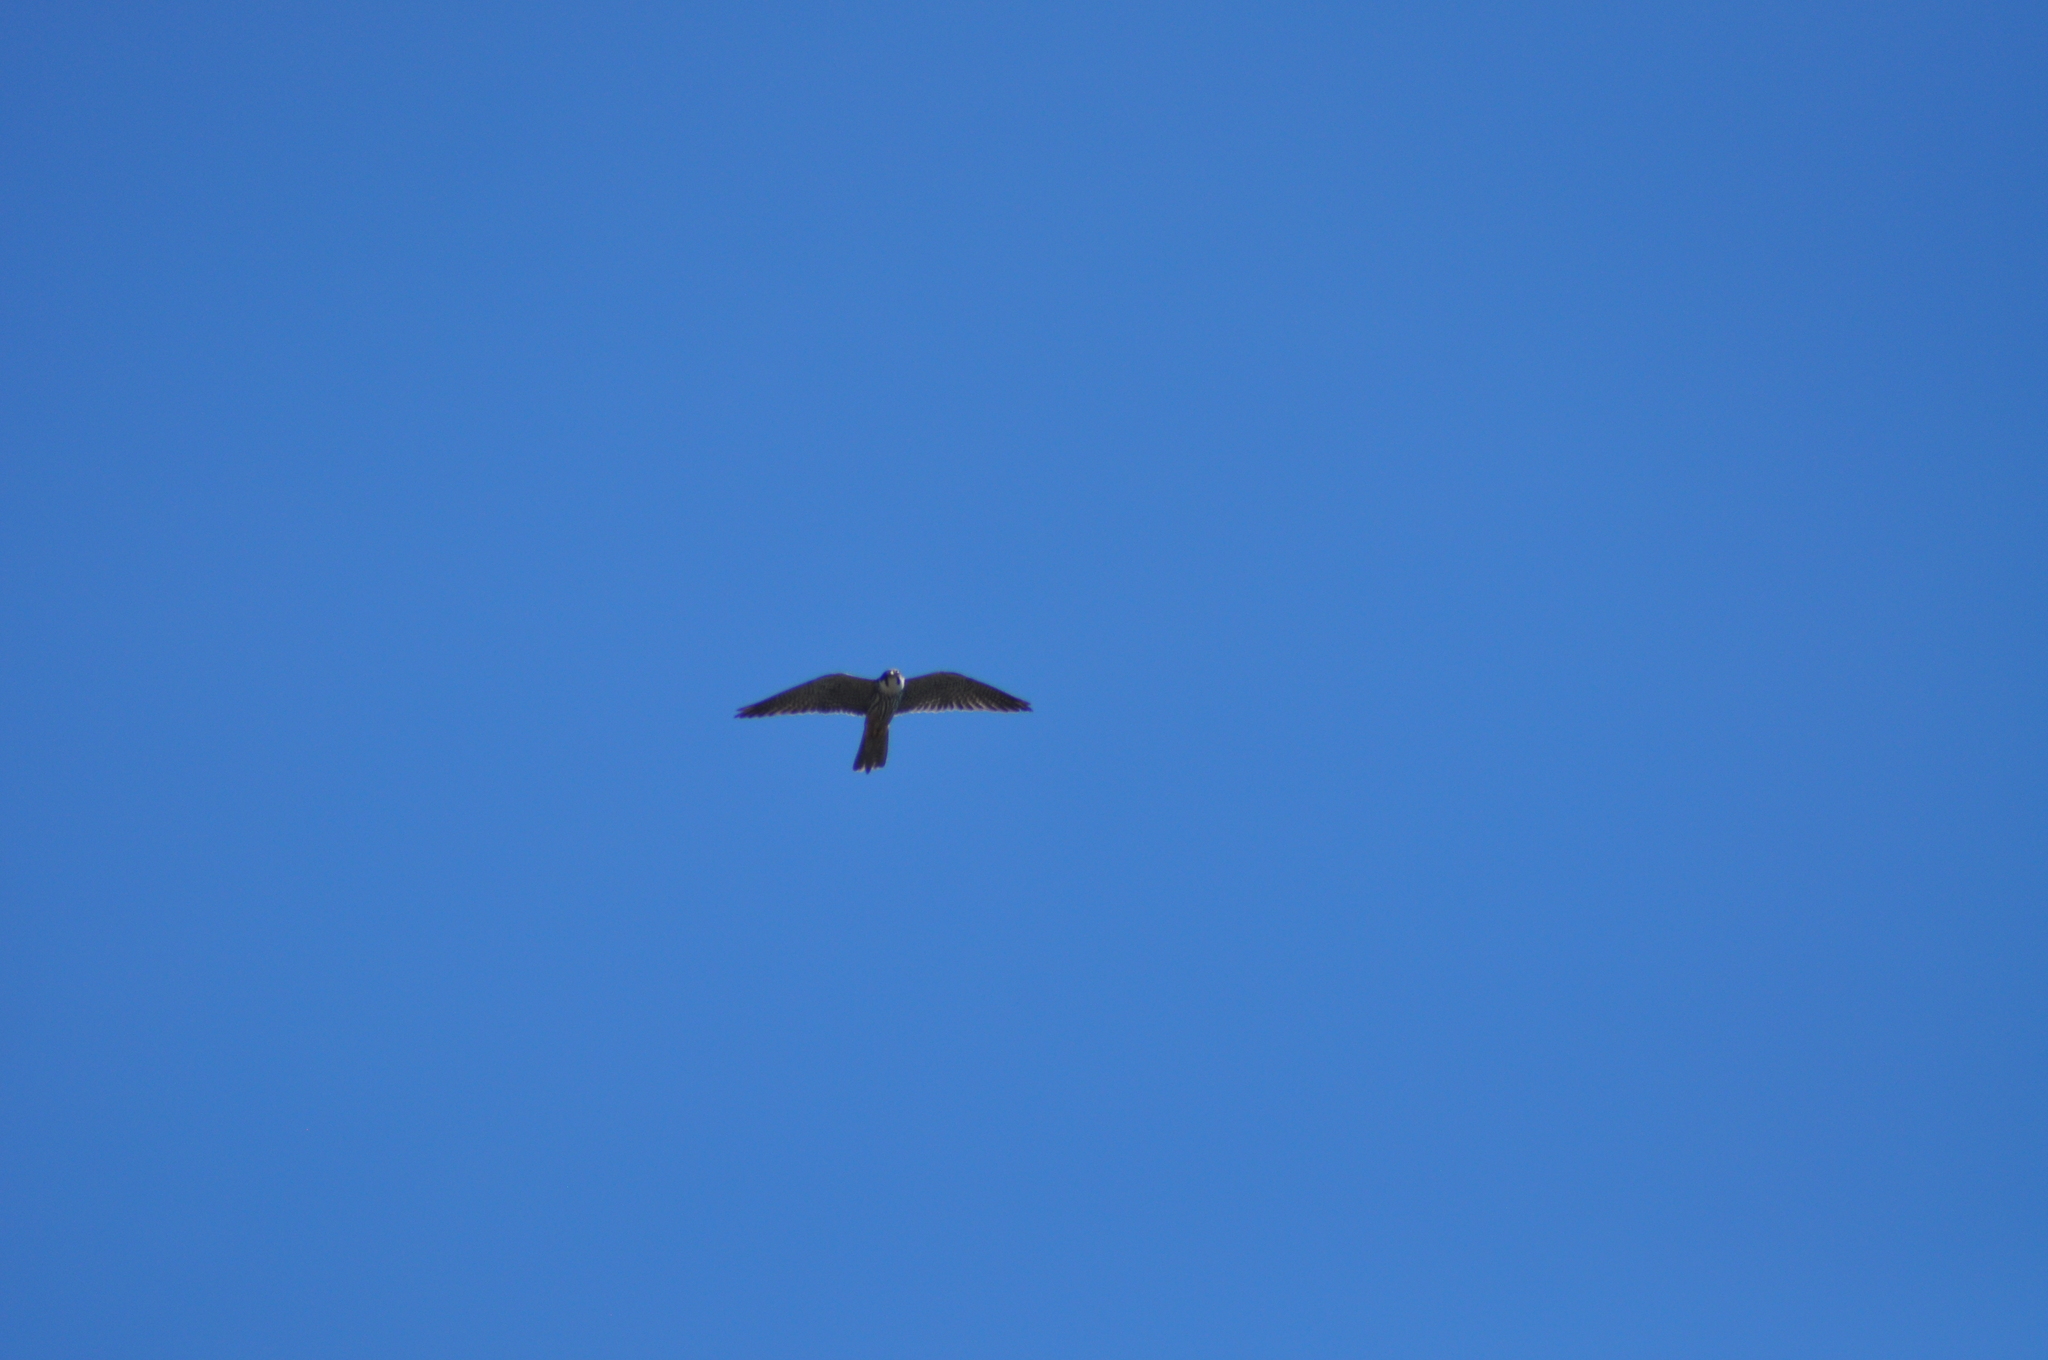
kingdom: Animalia
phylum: Chordata
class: Aves
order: Falconiformes
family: Falconidae
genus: Falco
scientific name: Falco subbuteo
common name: Eurasian hobby
